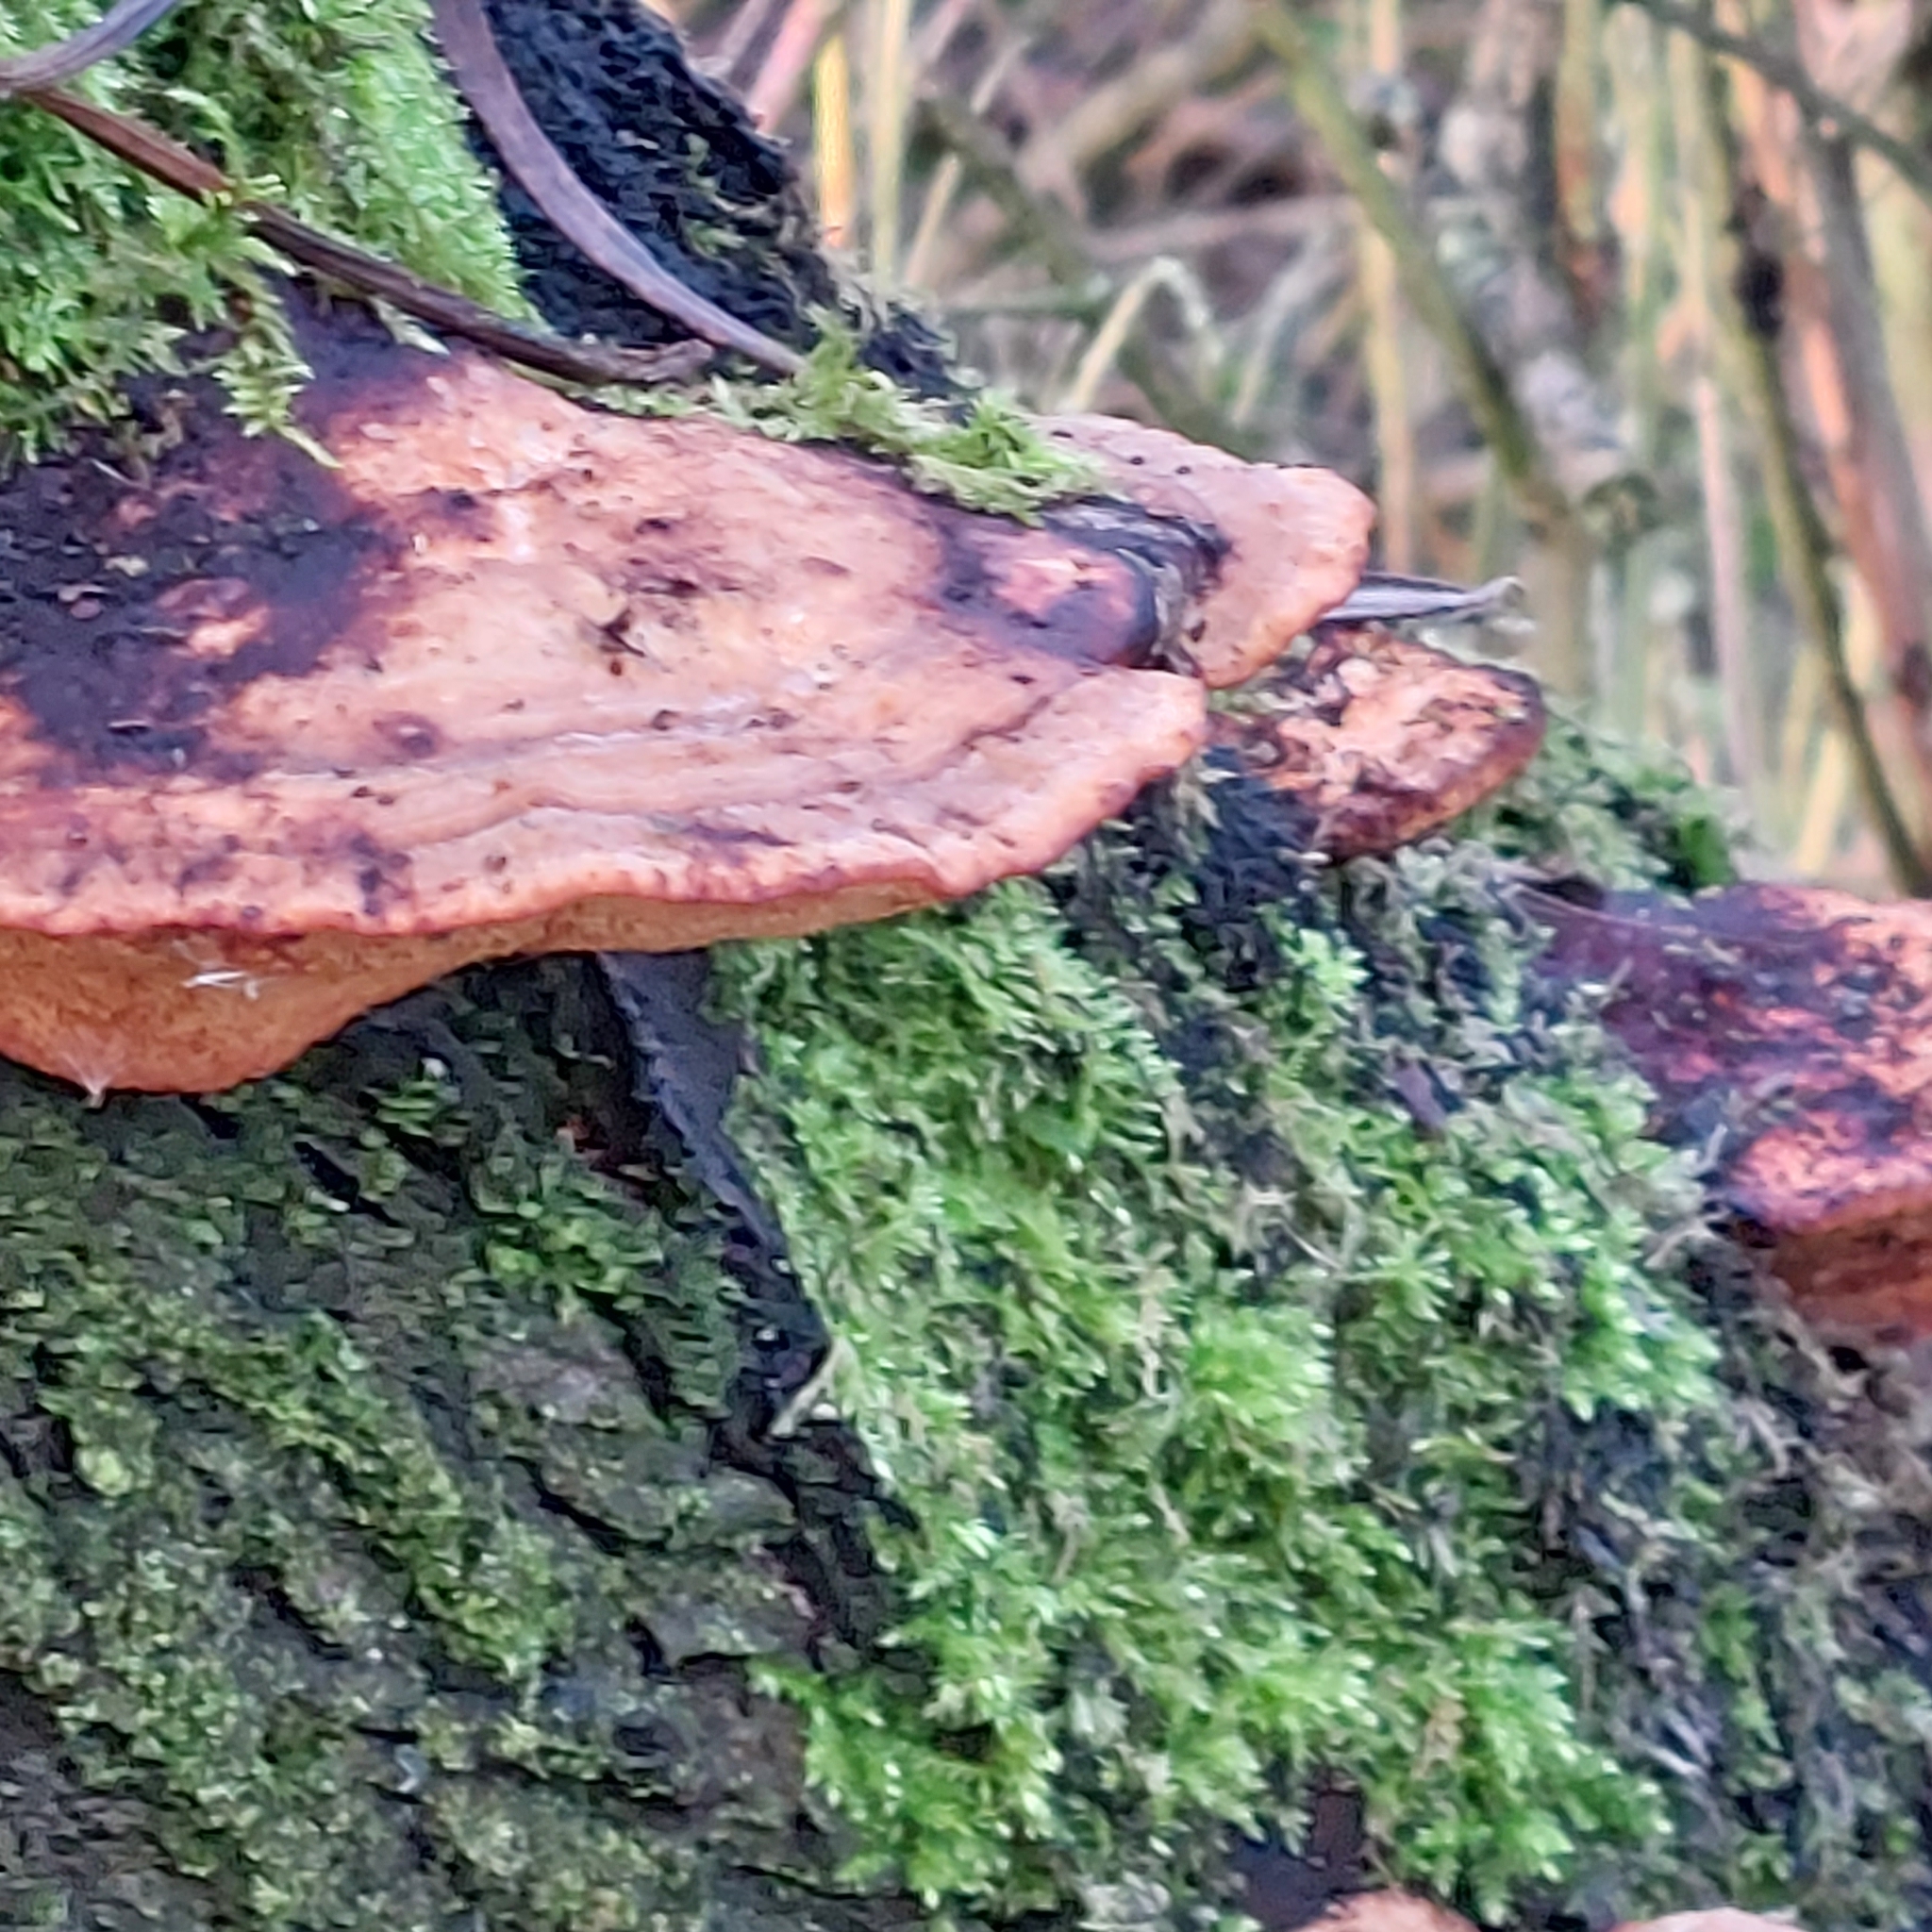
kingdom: Fungi
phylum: Basidiomycota
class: Agaricomycetes
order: Polyporales
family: Polyporaceae
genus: Daedaleopsis
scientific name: Daedaleopsis confragosa
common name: Blushing bracket
